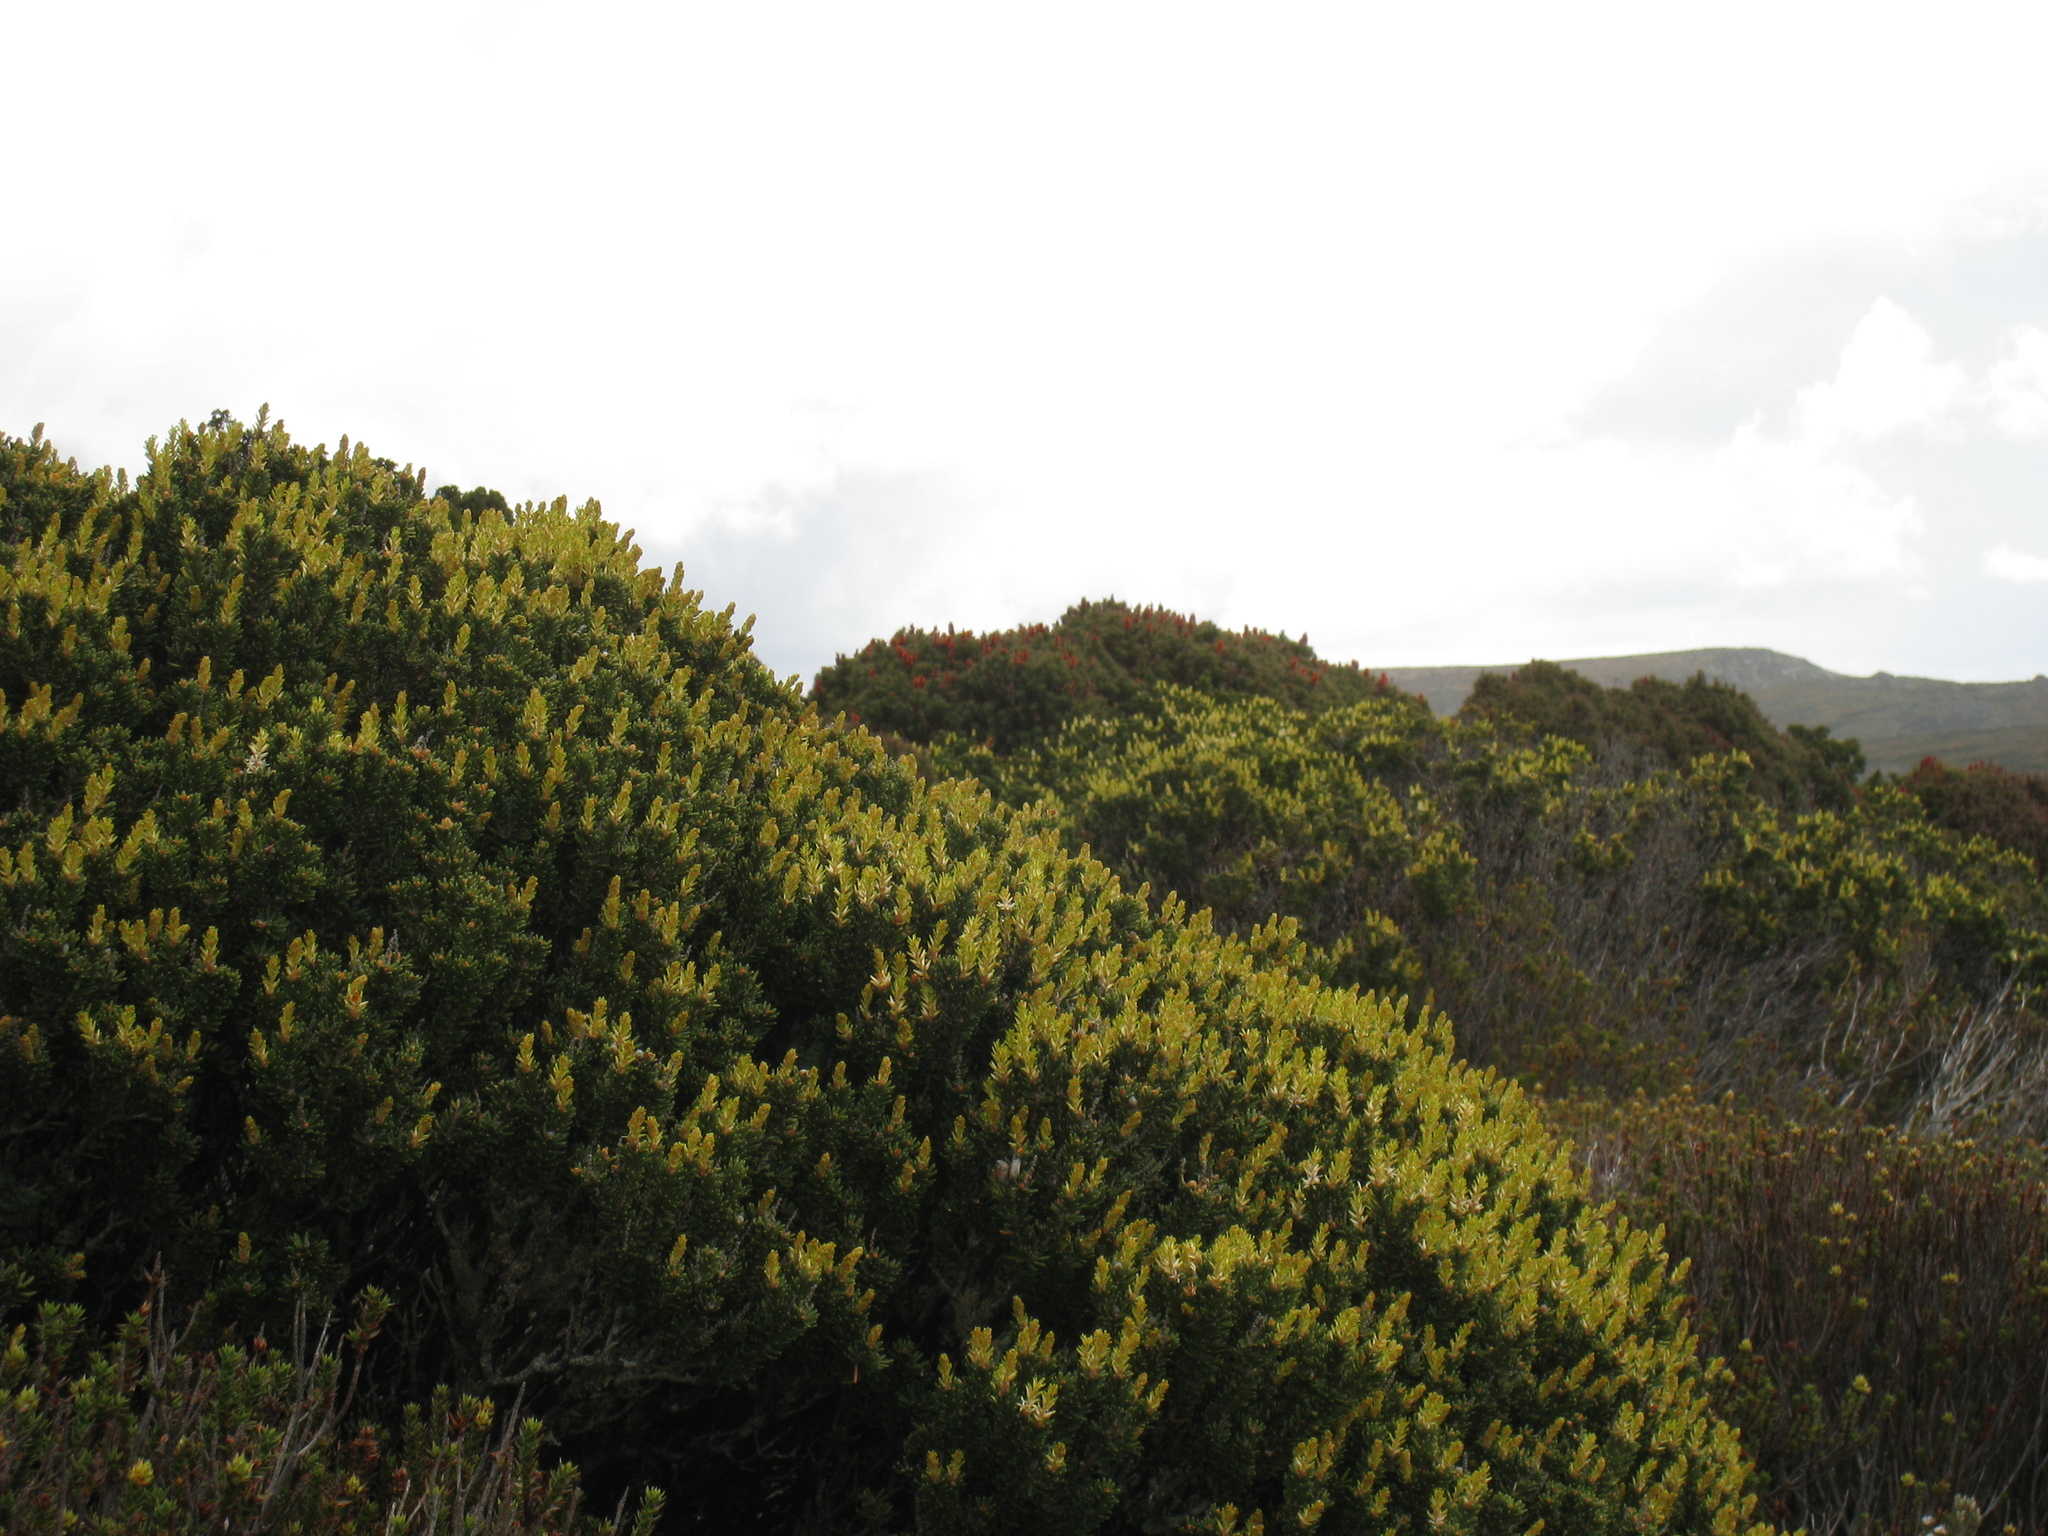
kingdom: Plantae
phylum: Tracheophyta
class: Magnoliopsida
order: Proteales
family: Proteaceae
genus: Orites
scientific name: Orites revolutus
